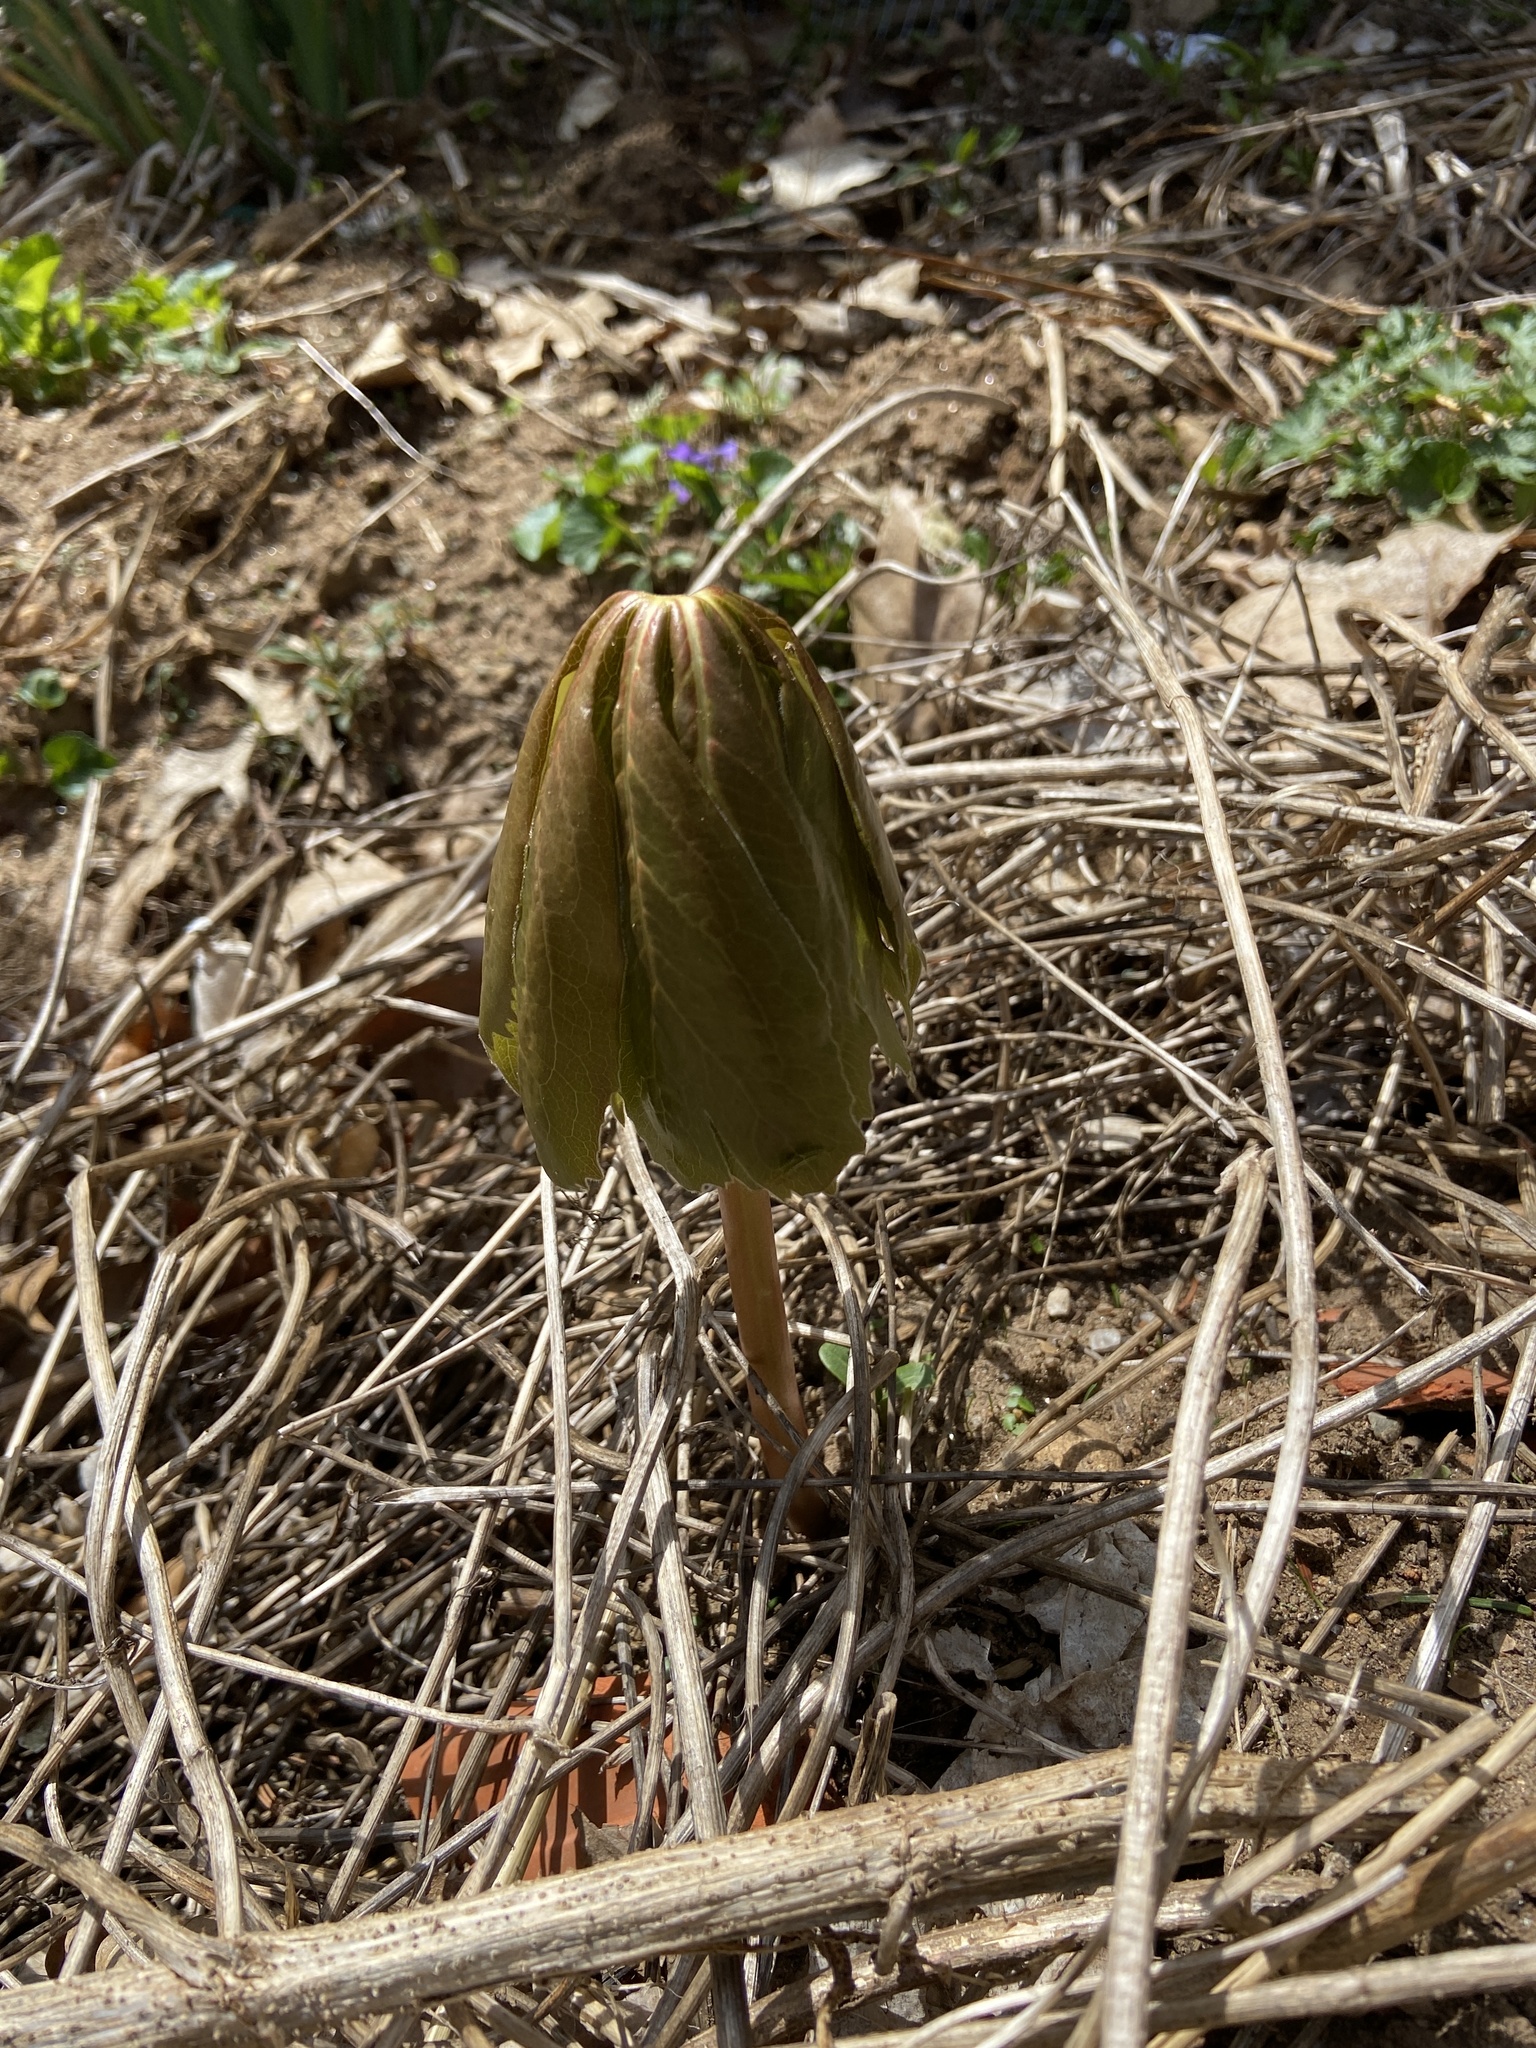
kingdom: Plantae
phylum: Tracheophyta
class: Magnoliopsida
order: Ranunculales
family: Berberidaceae
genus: Podophyllum
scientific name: Podophyllum peltatum
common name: Wild mandrake
